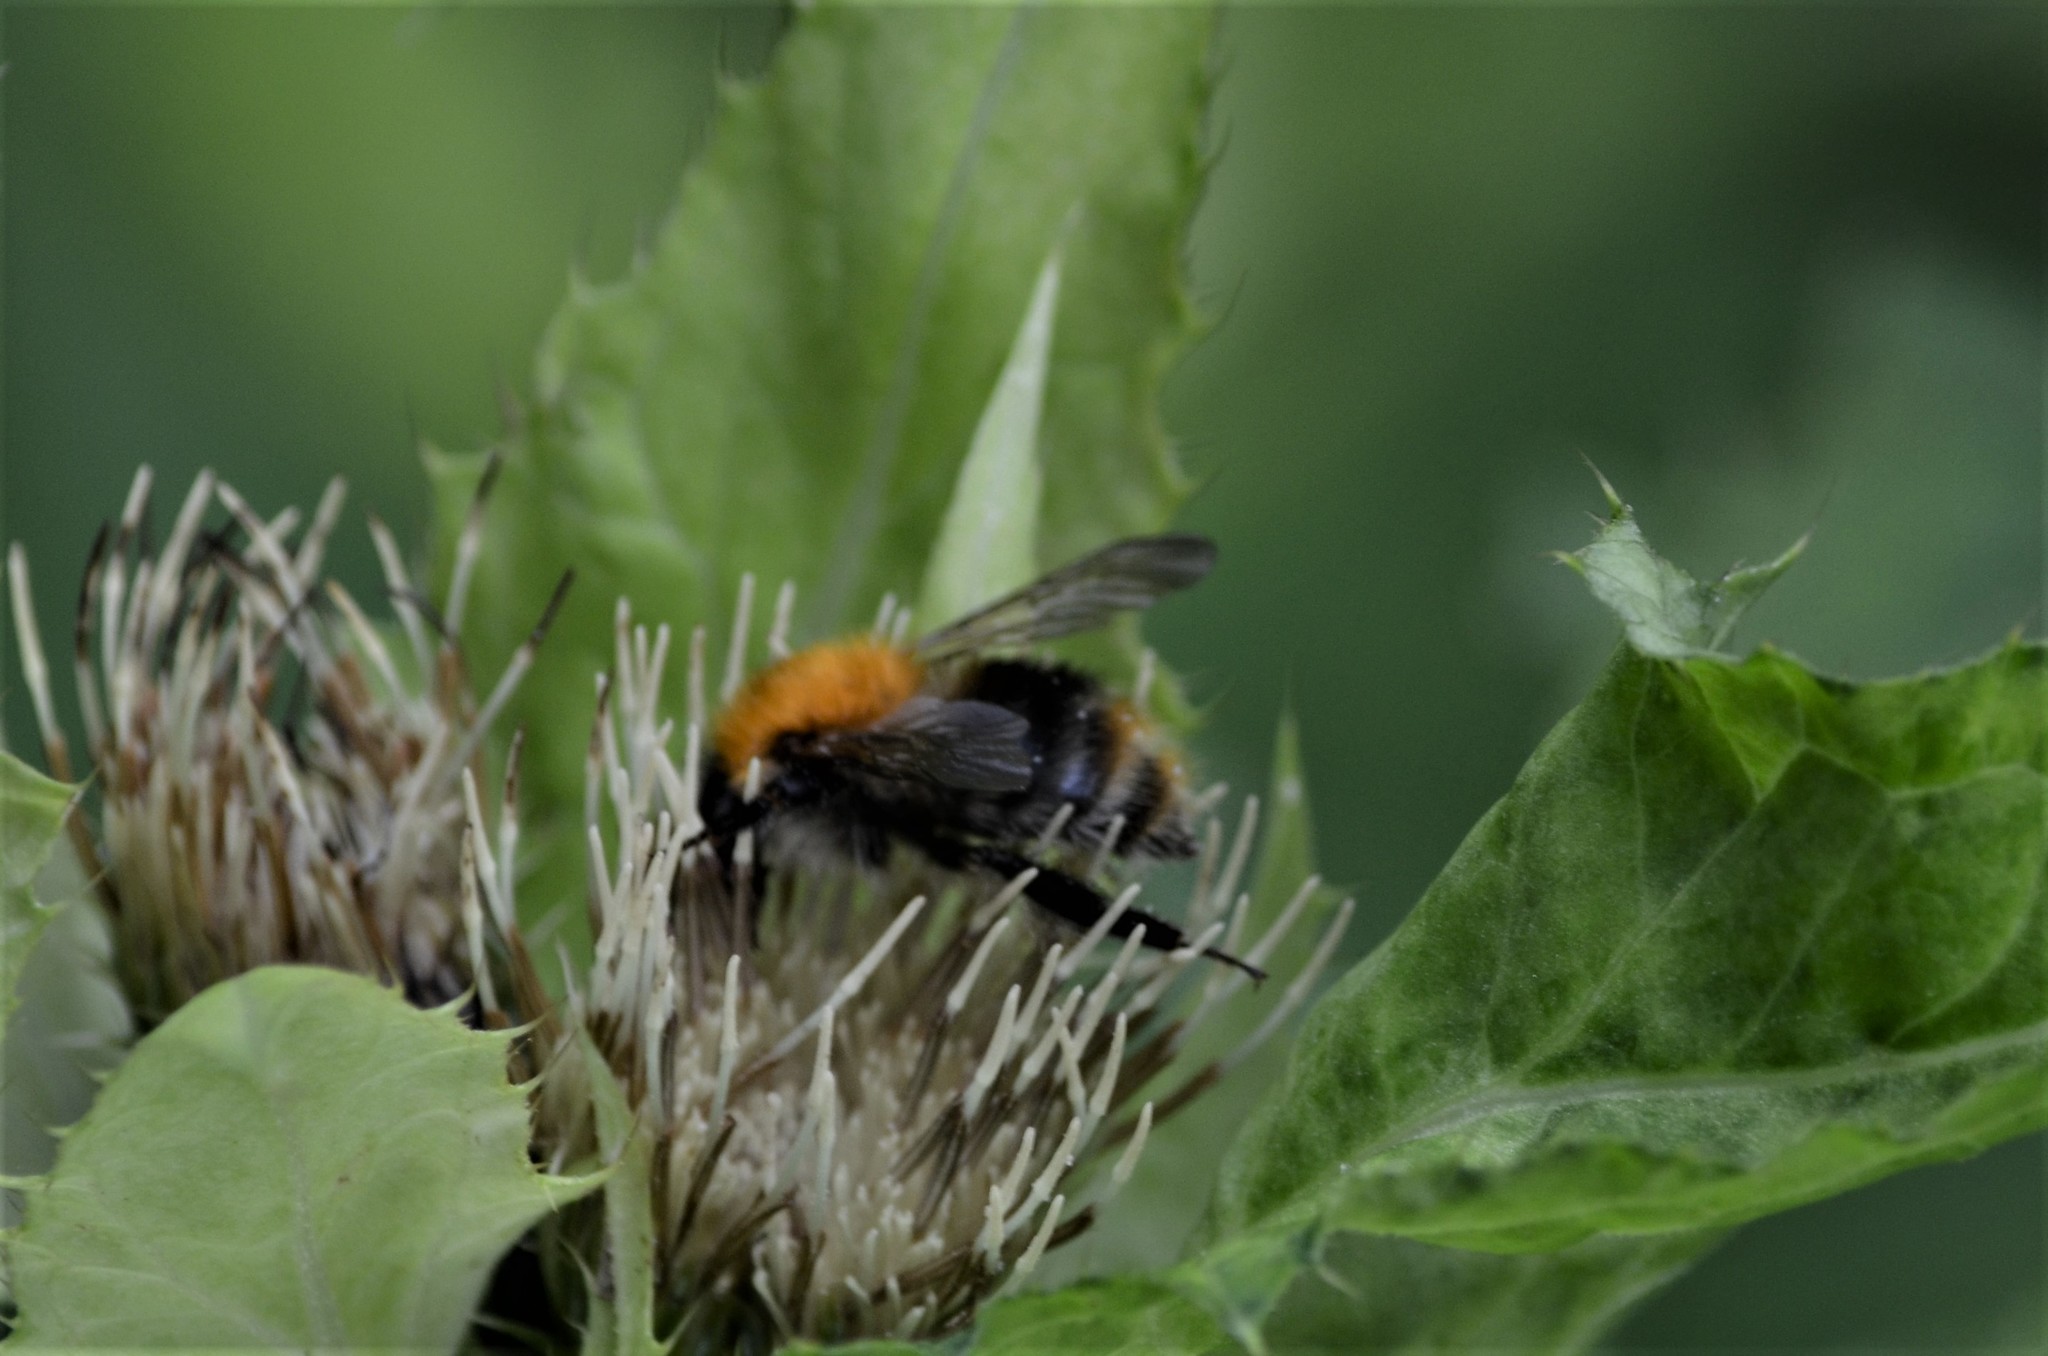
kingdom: Animalia
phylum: Arthropoda
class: Insecta
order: Hymenoptera
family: Apidae
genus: Bombus
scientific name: Bombus pascuorum
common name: Common carder bee
